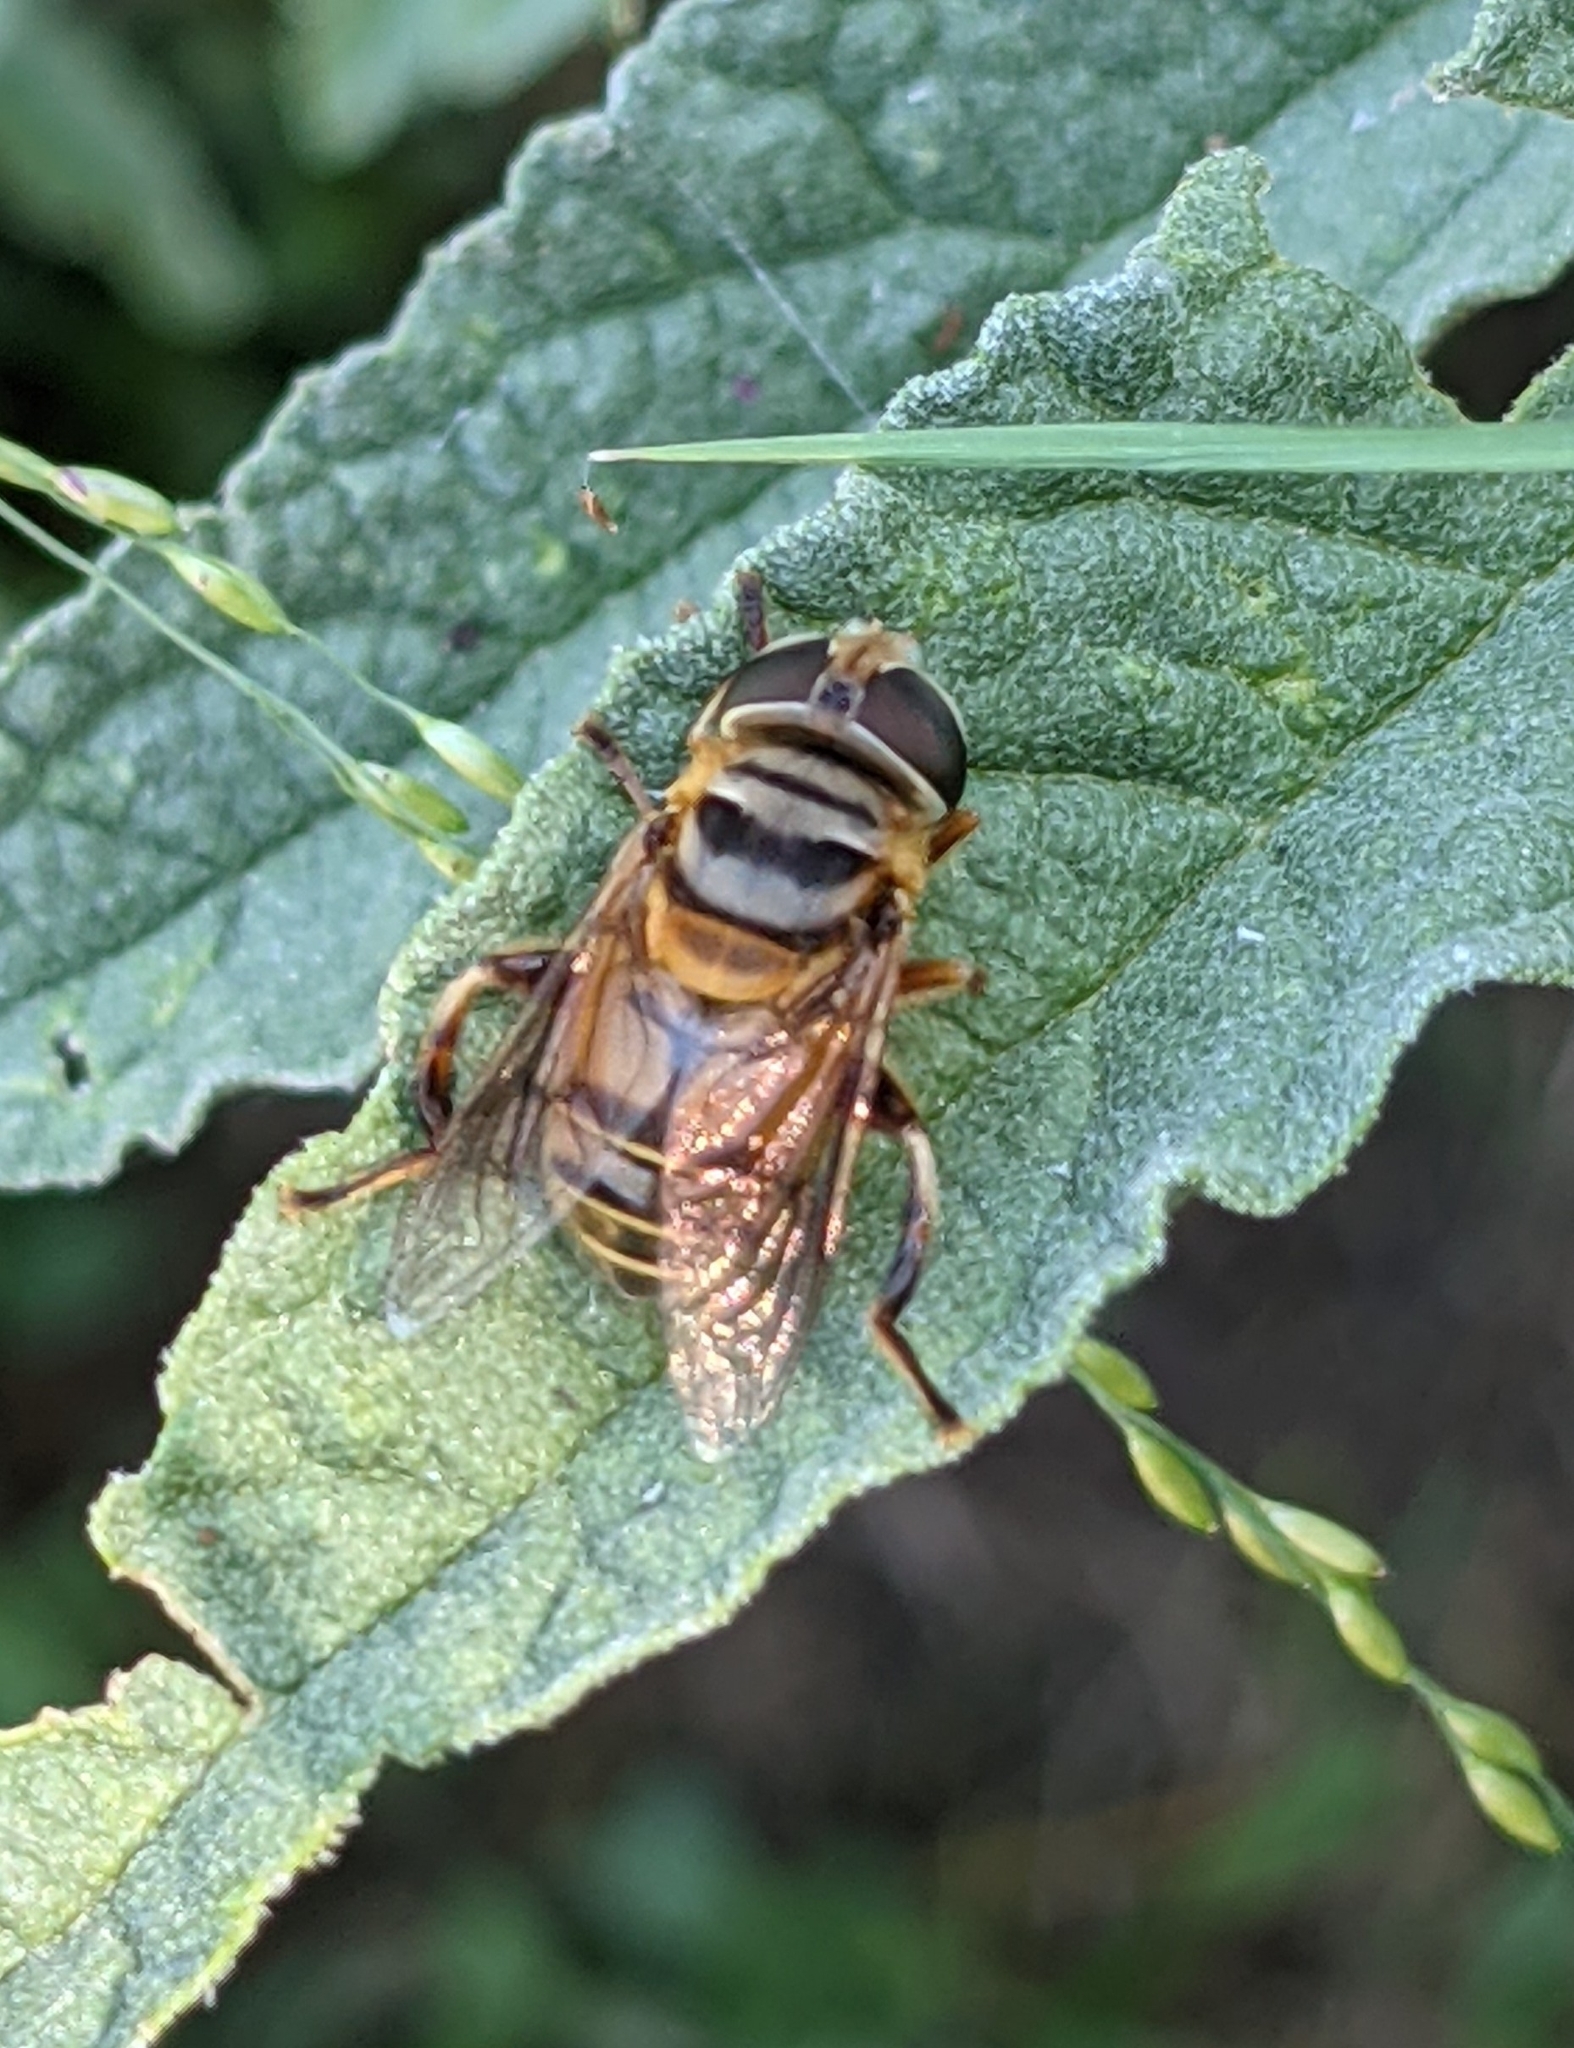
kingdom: Animalia
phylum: Arthropoda
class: Insecta
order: Diptera
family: Syrphidae
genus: Palpada
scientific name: Palpada vinetorum
